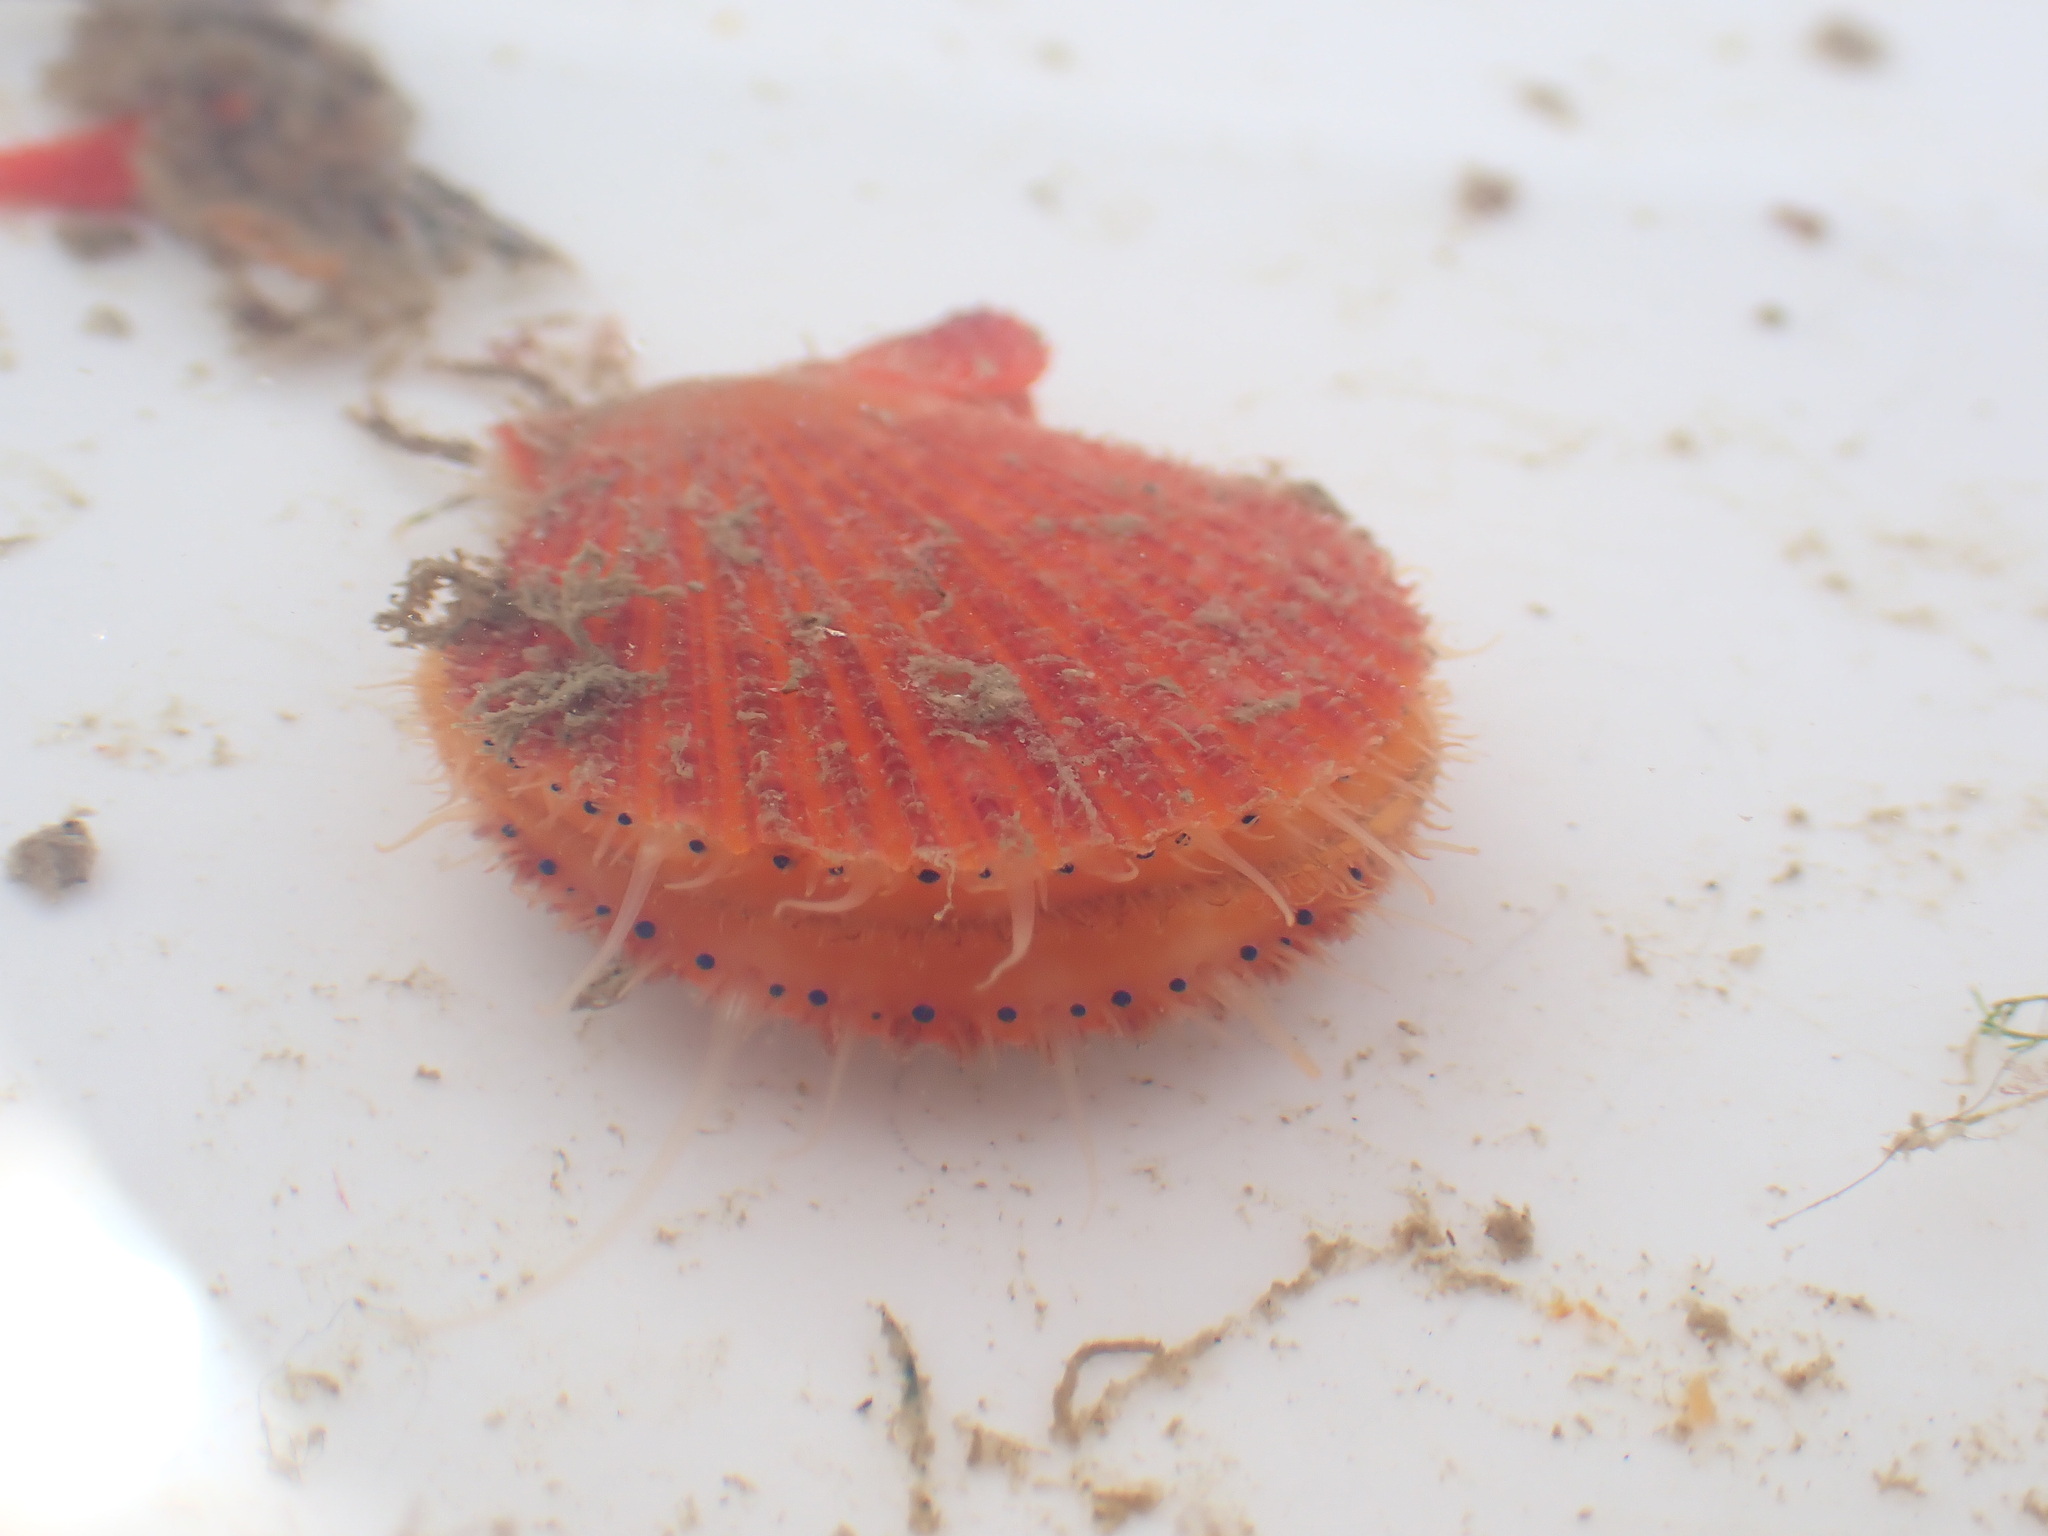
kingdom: Animalia
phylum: Mollusca
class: Bivalvia
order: Pectinida
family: Pectinidae
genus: Mimachlamys
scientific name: Mimachlamys asperrima
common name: Austral scallop
